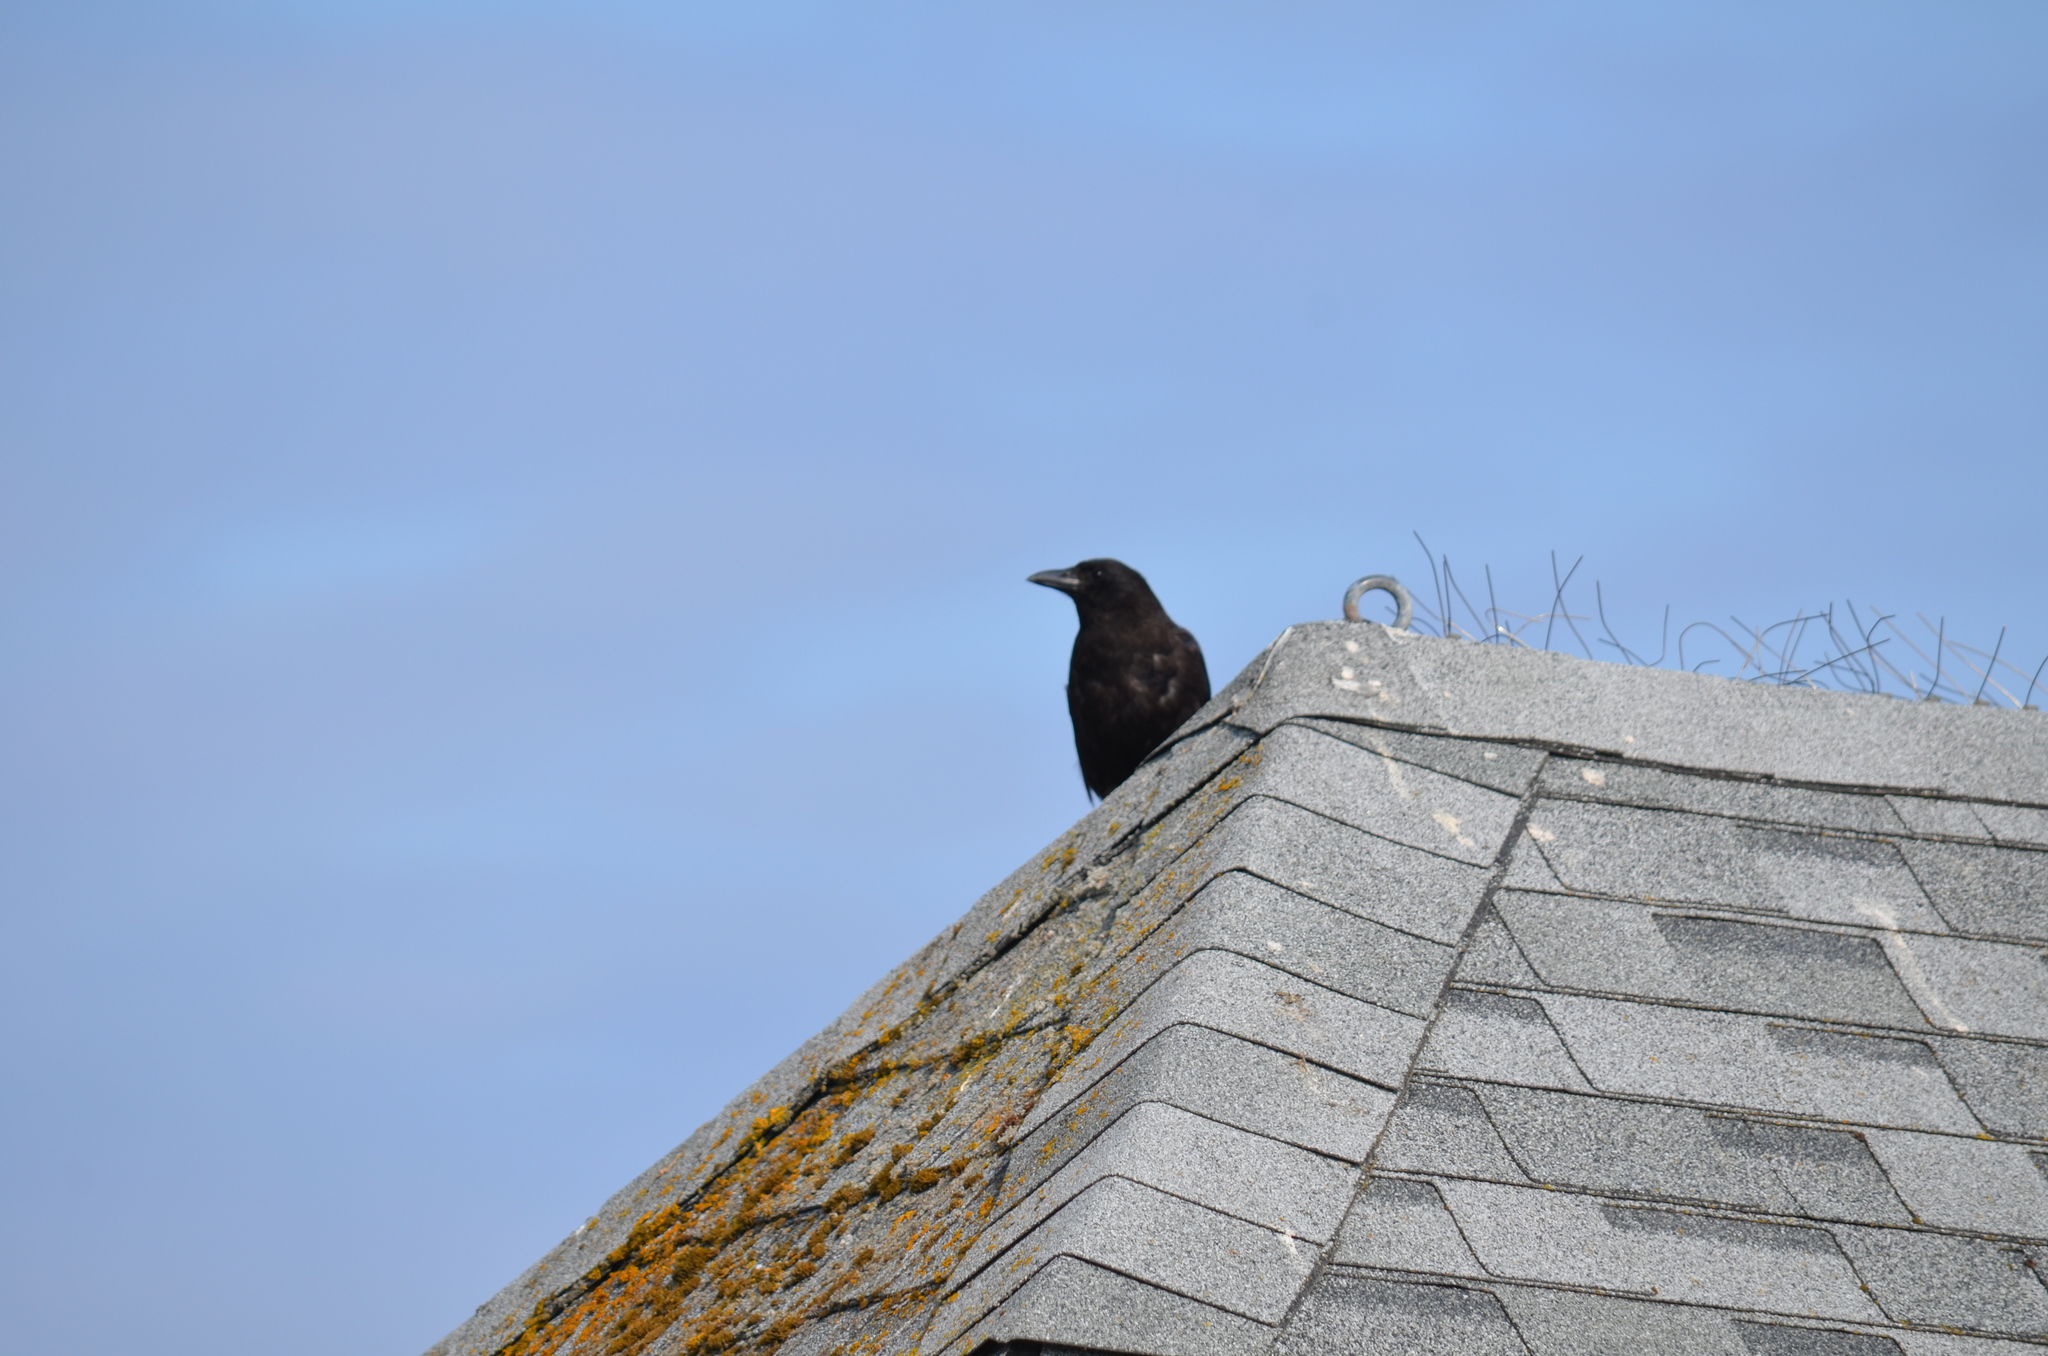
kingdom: Animalia
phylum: Chordata
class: Aves
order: Passeriformes
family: Corvidae
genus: Corvus
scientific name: Corvus brachyrhynchos
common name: American crow
